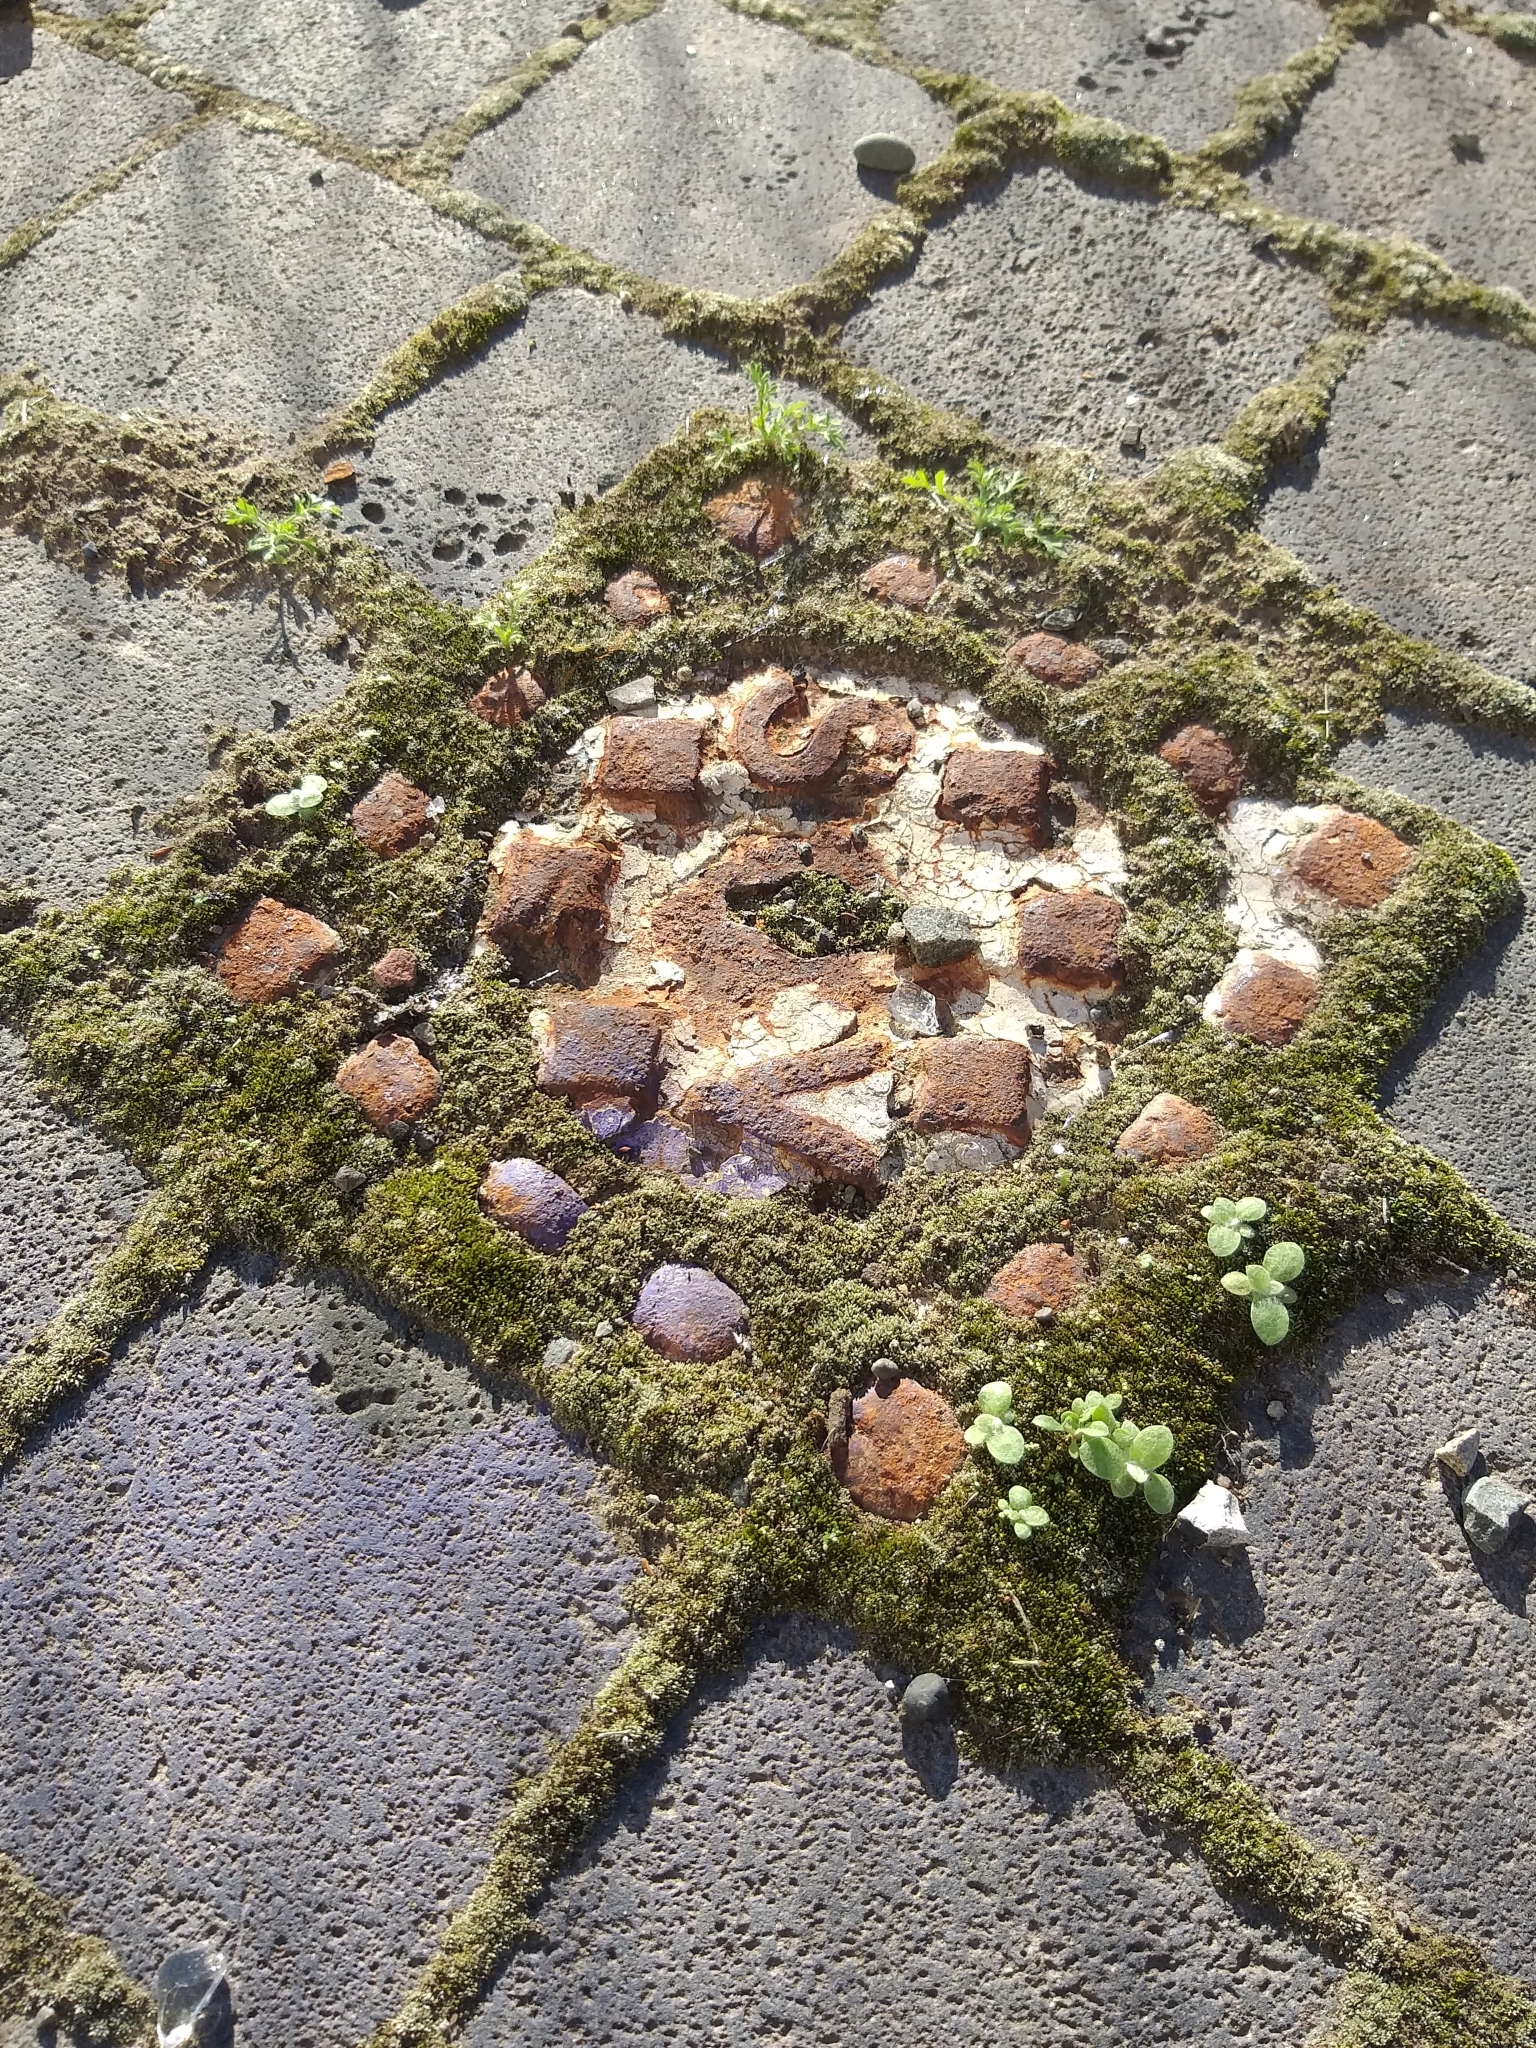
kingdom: Plantae
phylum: Bryophyta
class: Bryopsida
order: Bryales
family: Bryaceae
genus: Bryum
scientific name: Bryum argenteum
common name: Silver-moss
